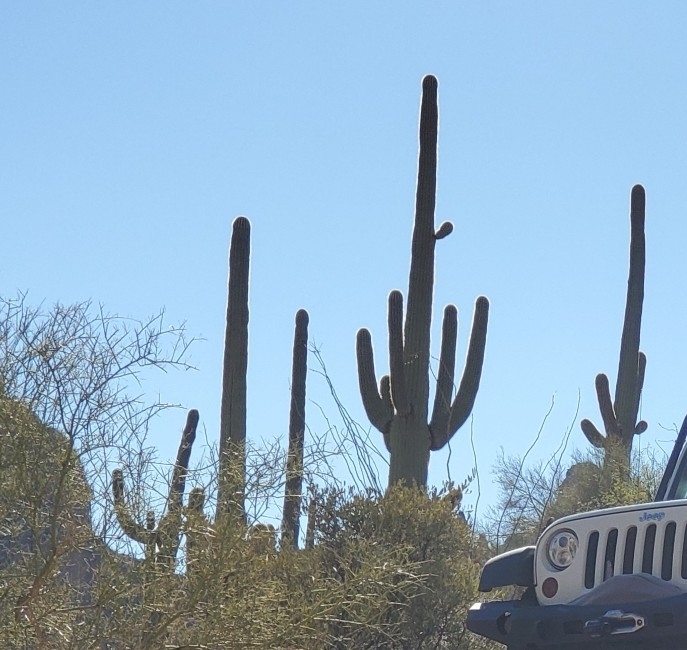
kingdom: Plantae
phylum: Tracheophyta
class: Magnoliopsida
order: Caryophyllales
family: Cactaceae
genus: Carnegiea
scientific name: Carnegiea gigantea
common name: Saguaro
